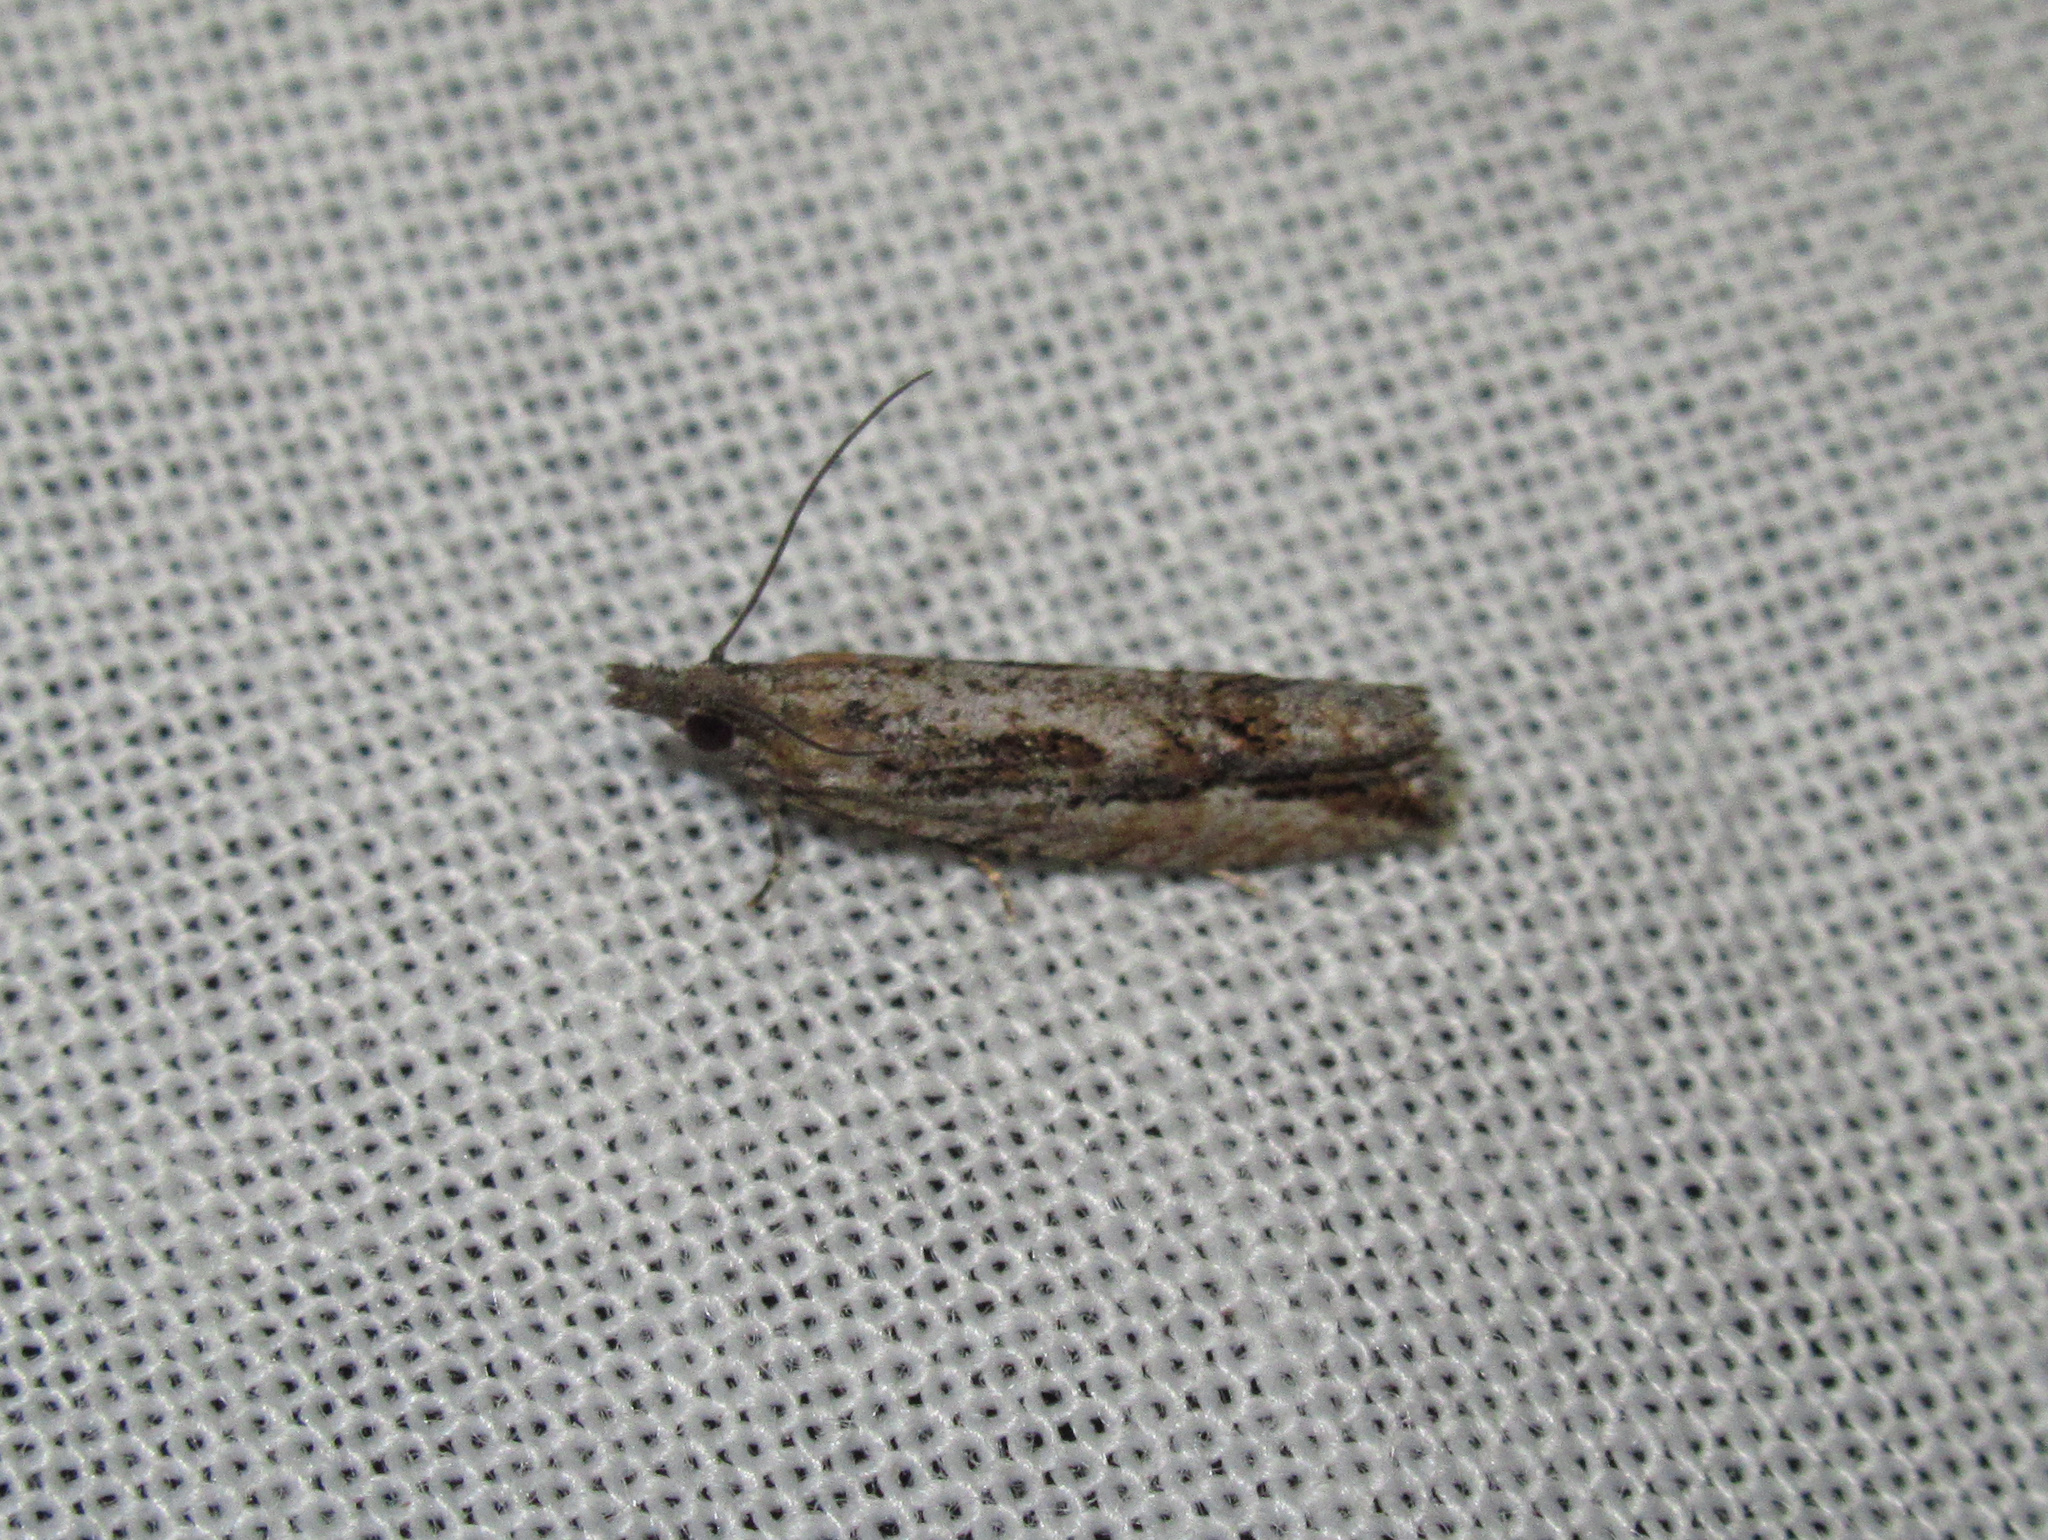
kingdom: Animalia
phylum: Arthropoda
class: Insecta
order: Lepidoptera
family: Tortricidae
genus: Strepsicrates
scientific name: Strepsicrates ejectana
